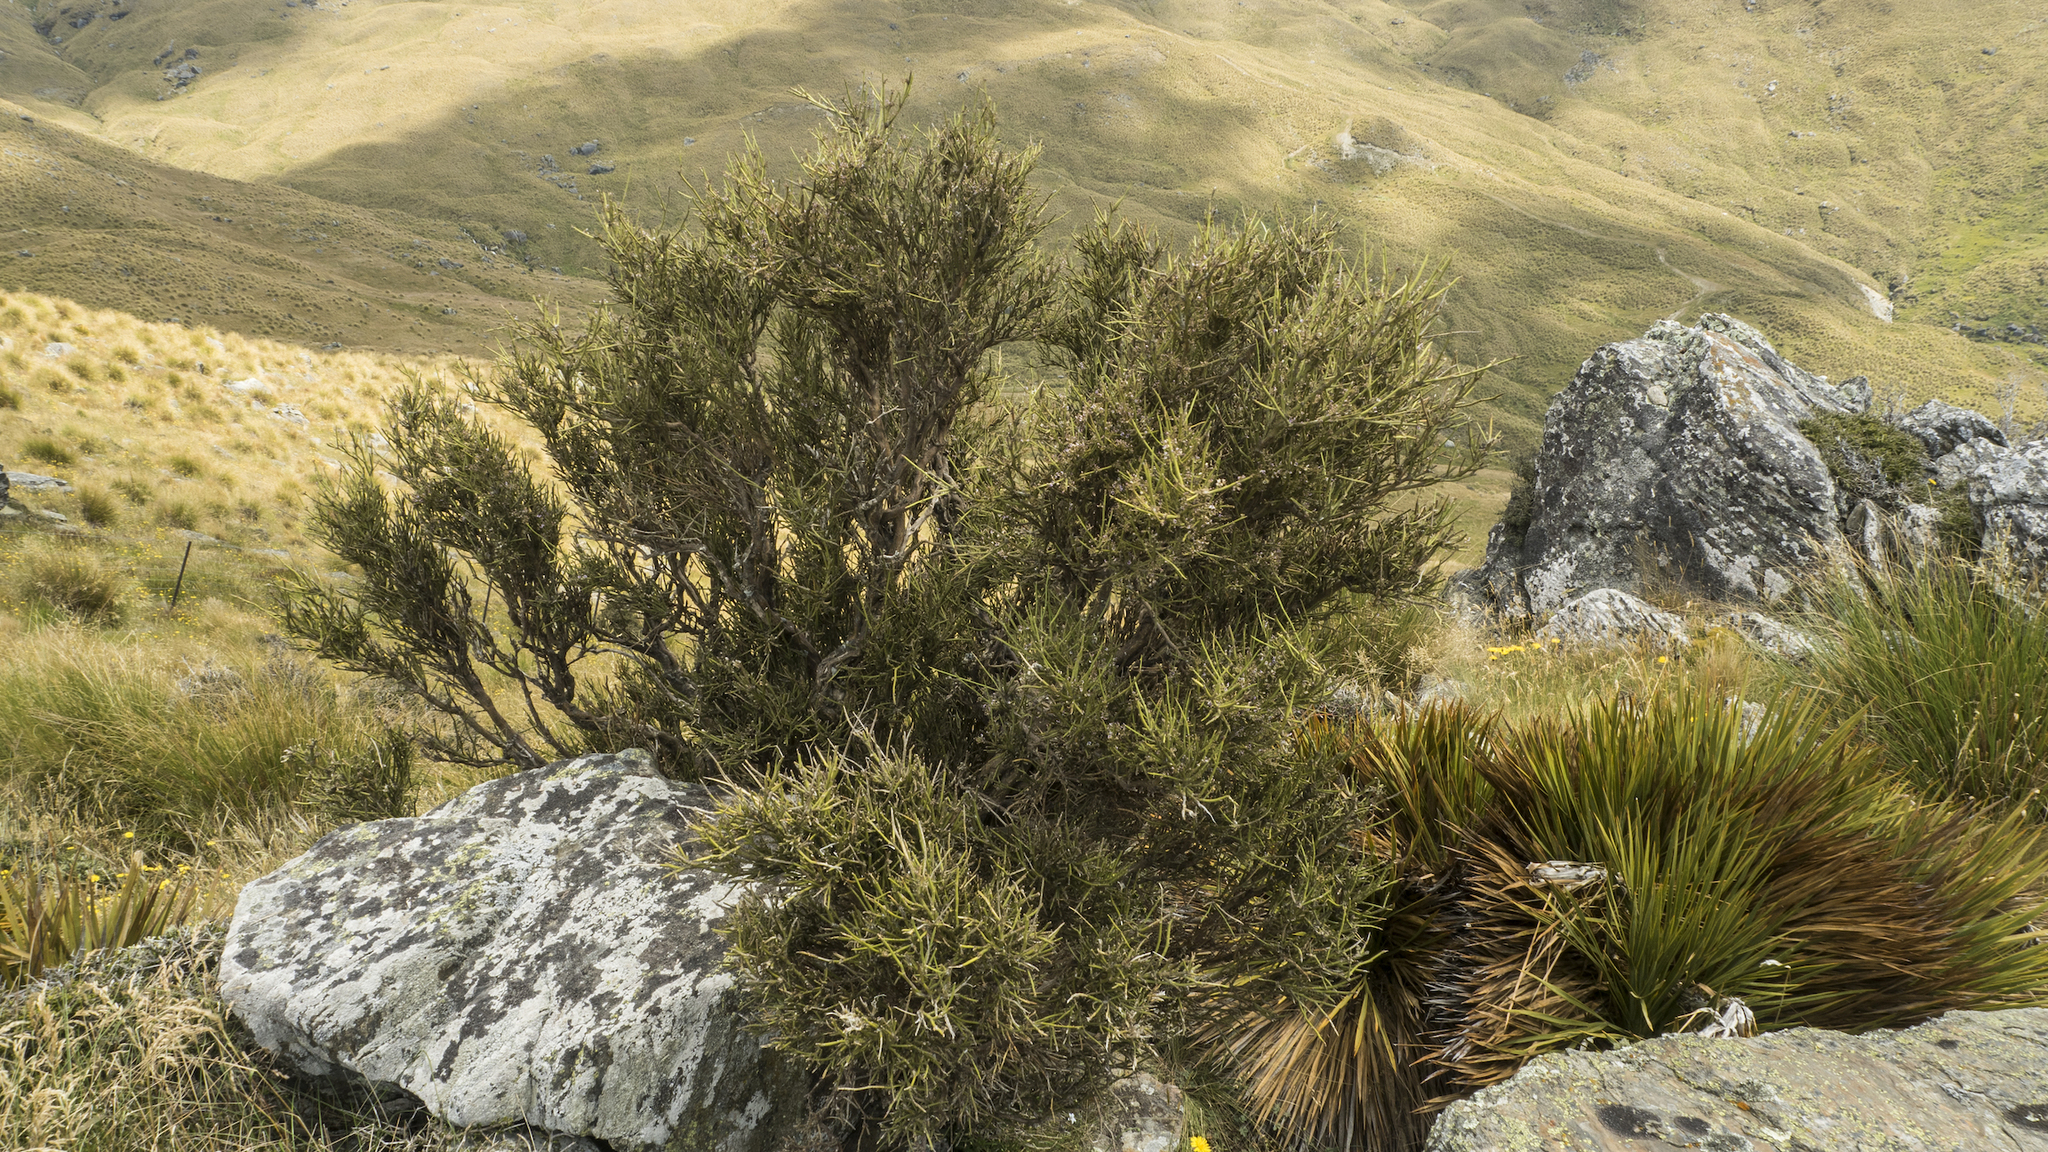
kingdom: Plantae
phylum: Tracheophyta
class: Magnoliopsida
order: Fabales
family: Fabaceae
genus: Carmichaelia
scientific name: Carmichaelia petriei
